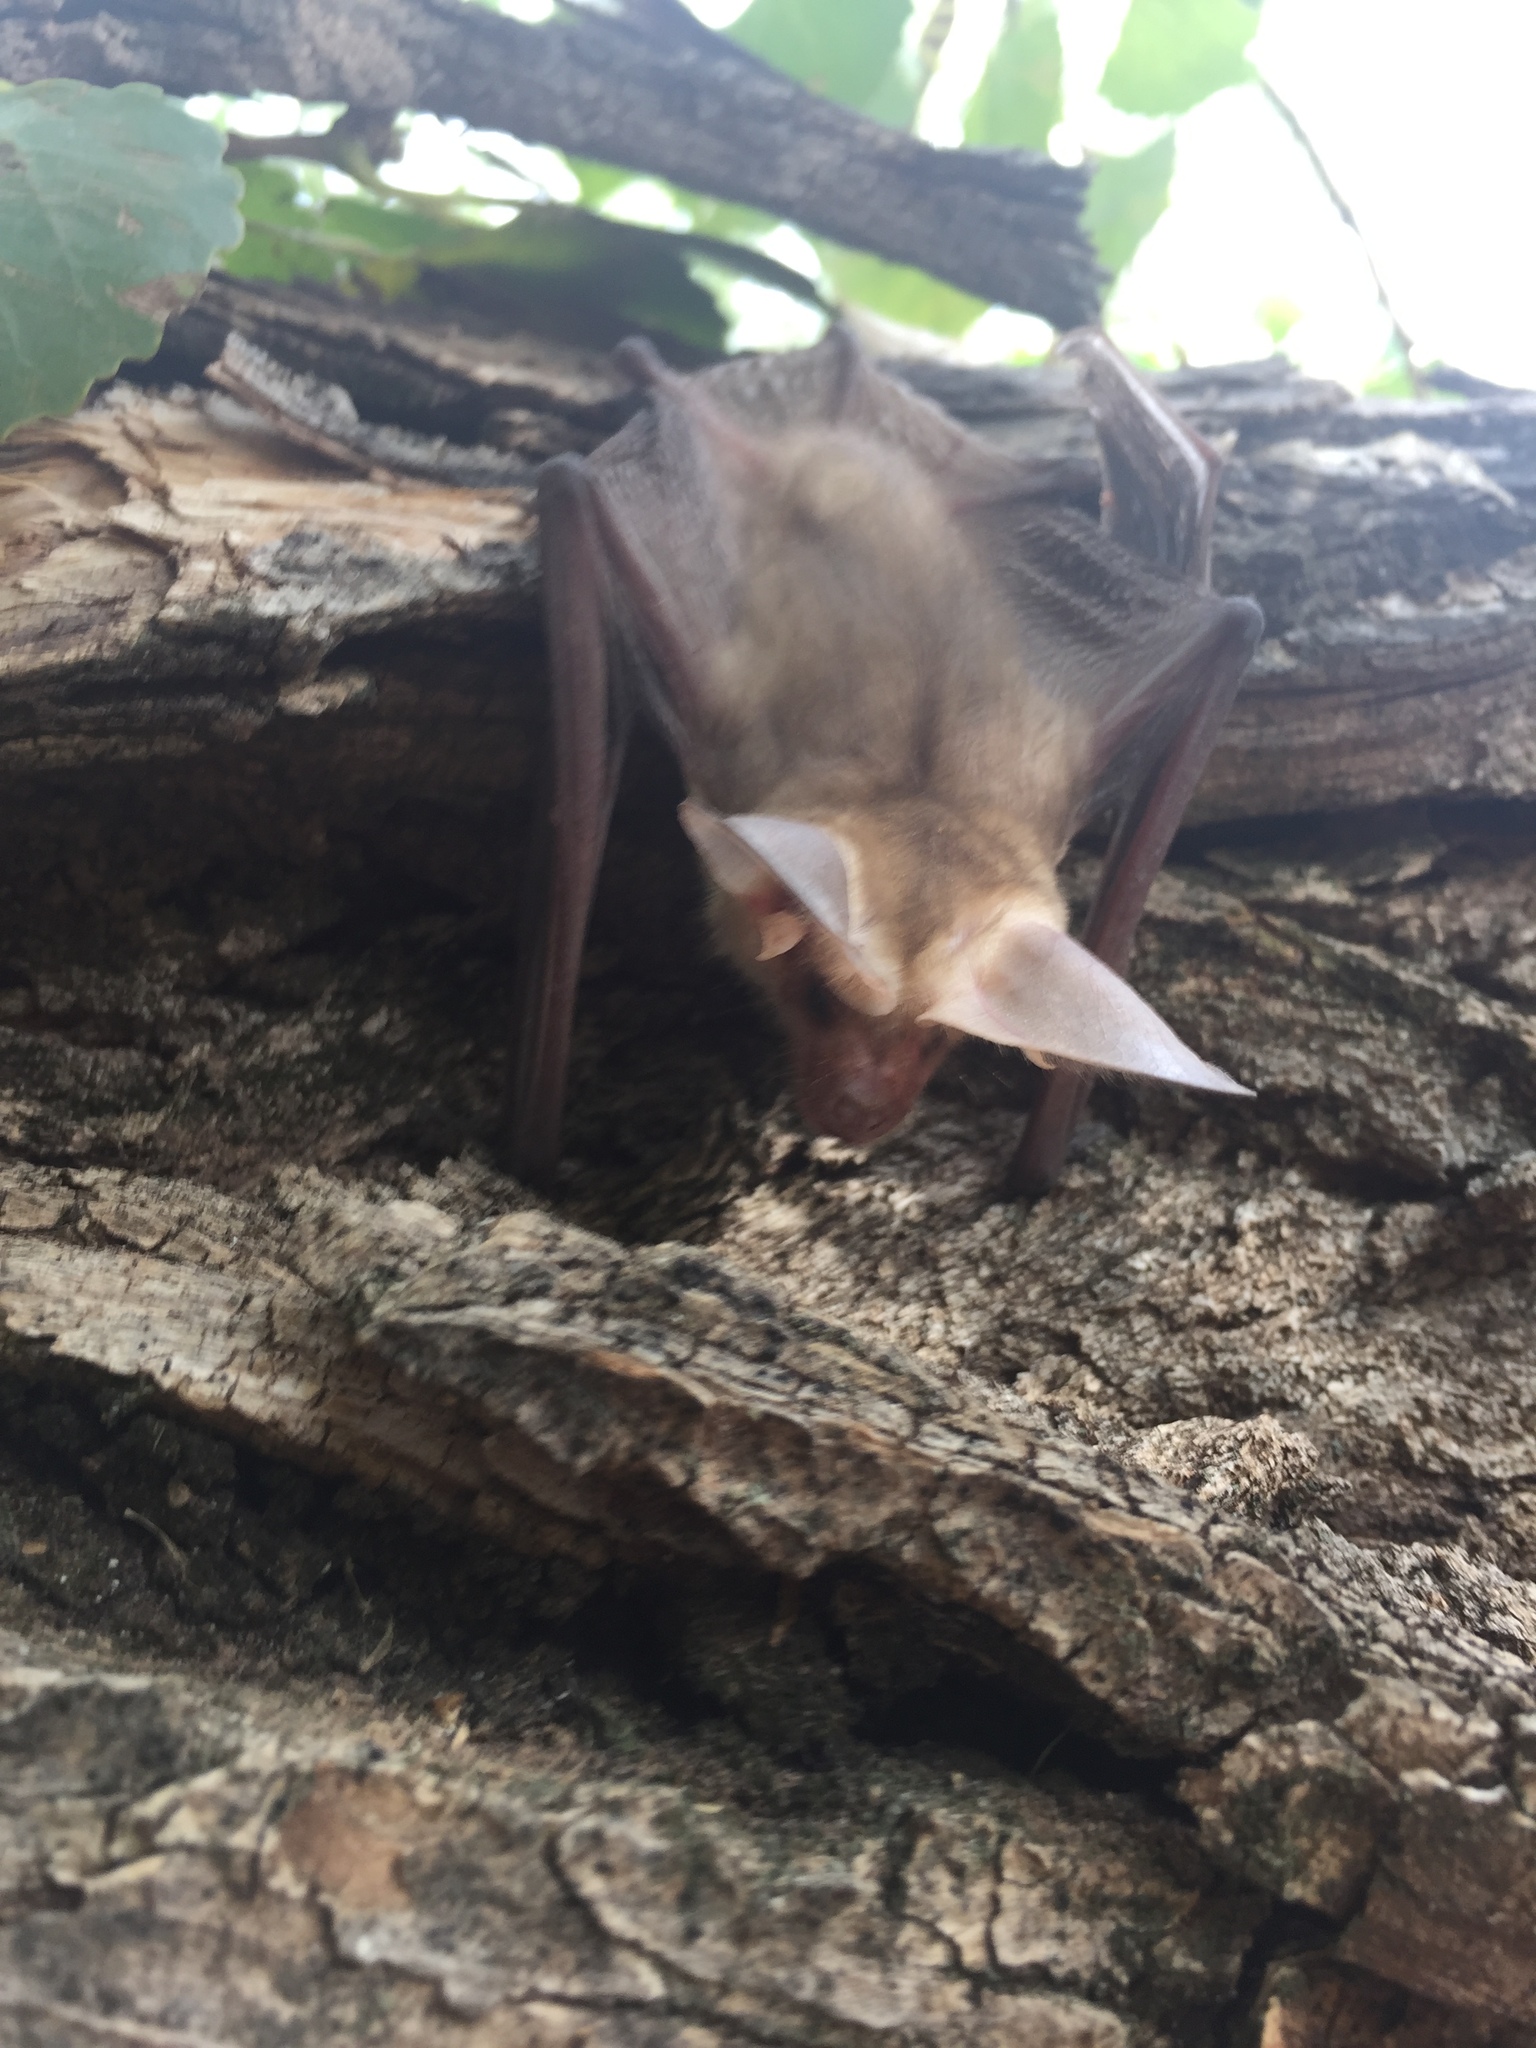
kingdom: Animalia
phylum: Chordata
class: Mammalia
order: Chiroptera
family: Vespertilionidae
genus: Antrozous
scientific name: Antrozous pallidus
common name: Pallid bat
